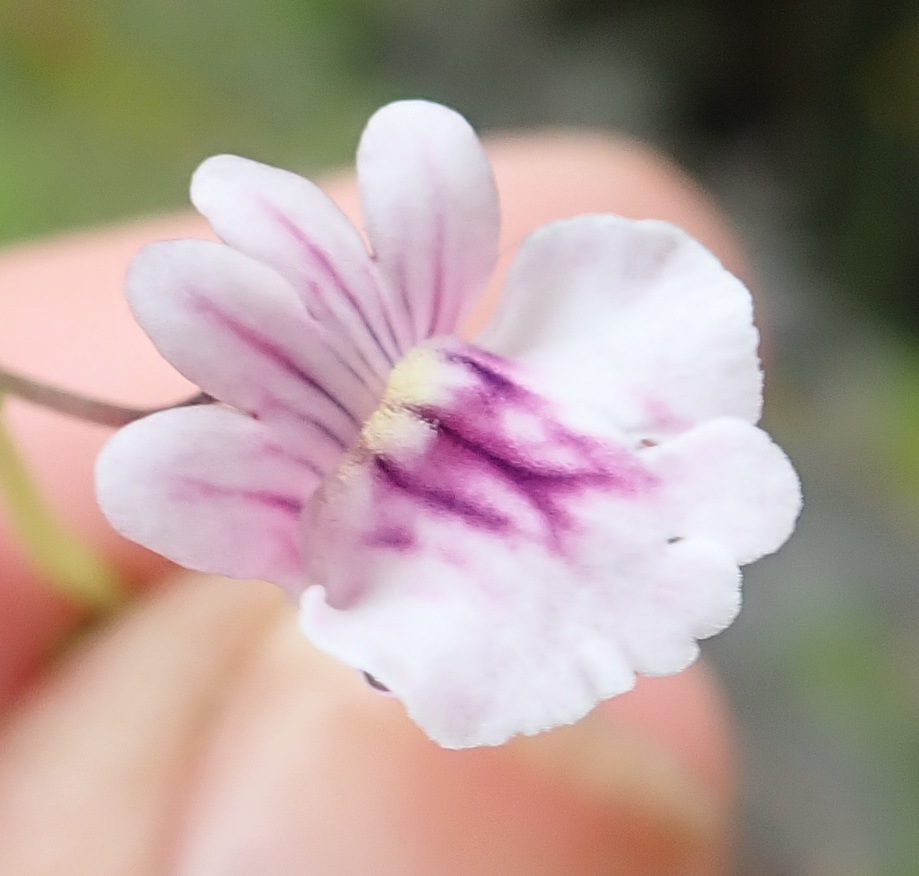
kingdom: Plantae
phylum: Tracheophyta
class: Magnoliopsida
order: Lamiales
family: Scrophulariaceae
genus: Nemesia
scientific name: Nemesia diffusa
